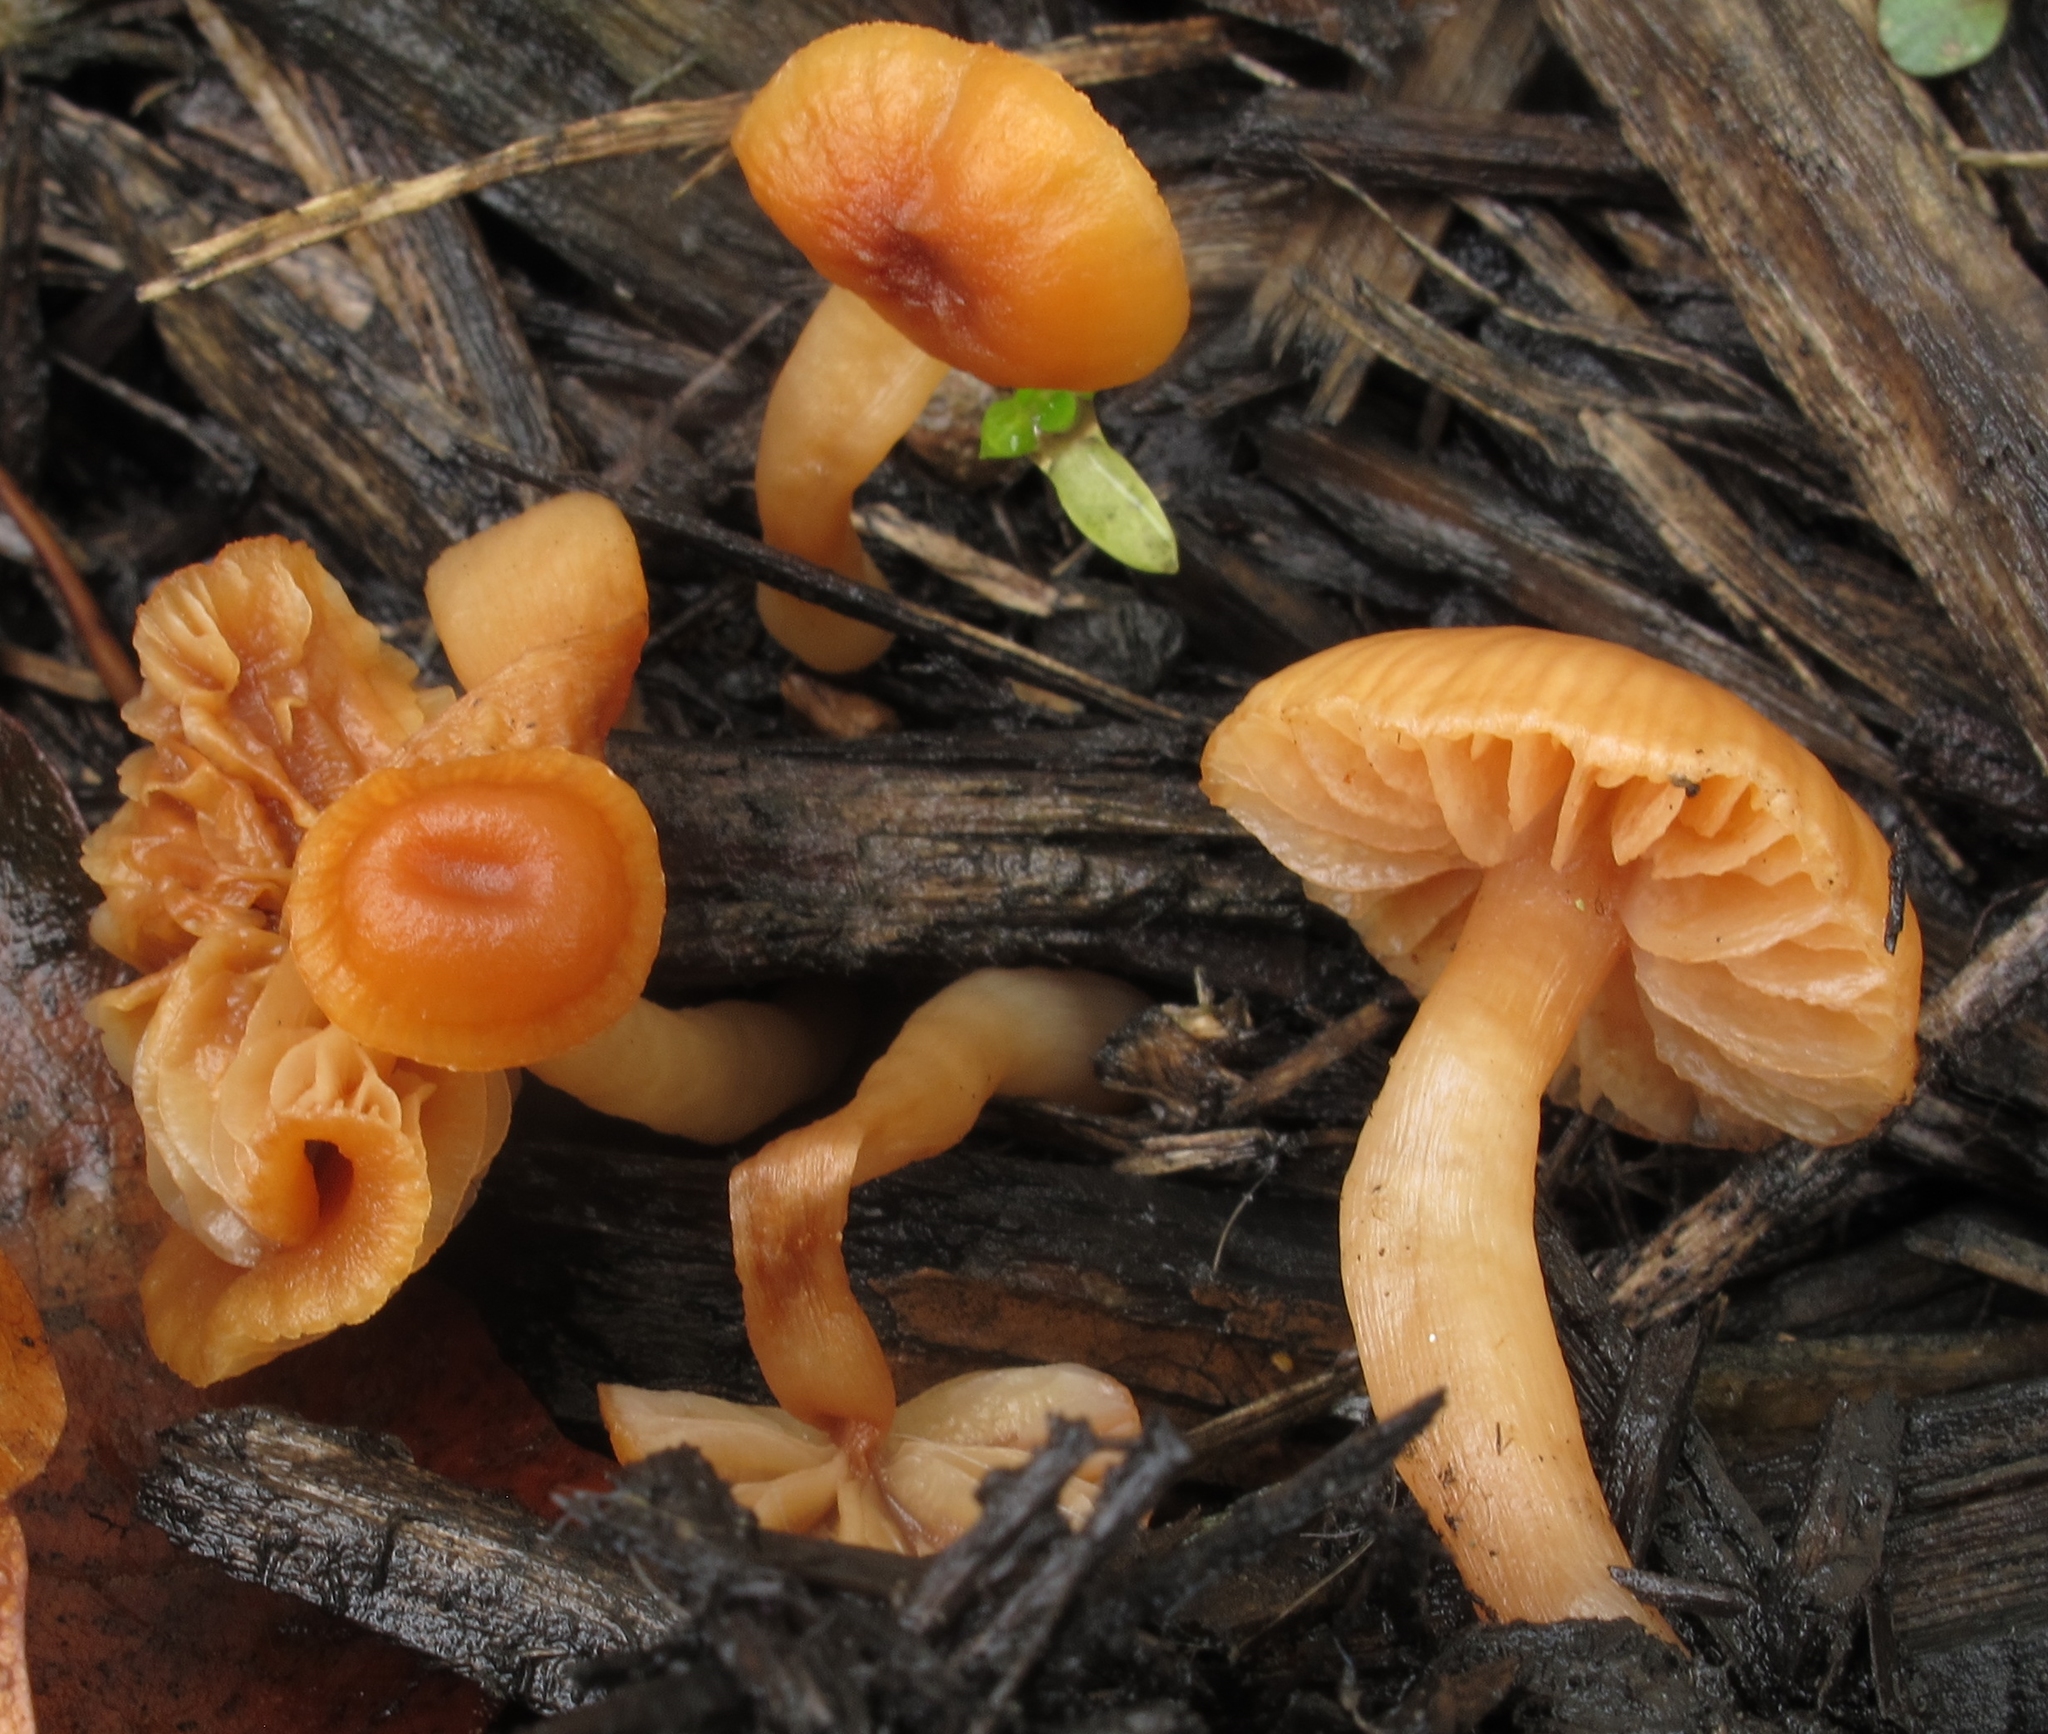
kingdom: Fungi
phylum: Basidiomycota
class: Agaricomycetes
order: Agaricales
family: Tubariaceae
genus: Tubaria
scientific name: Tubaria furfuracea
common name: Scurfy twiglet
